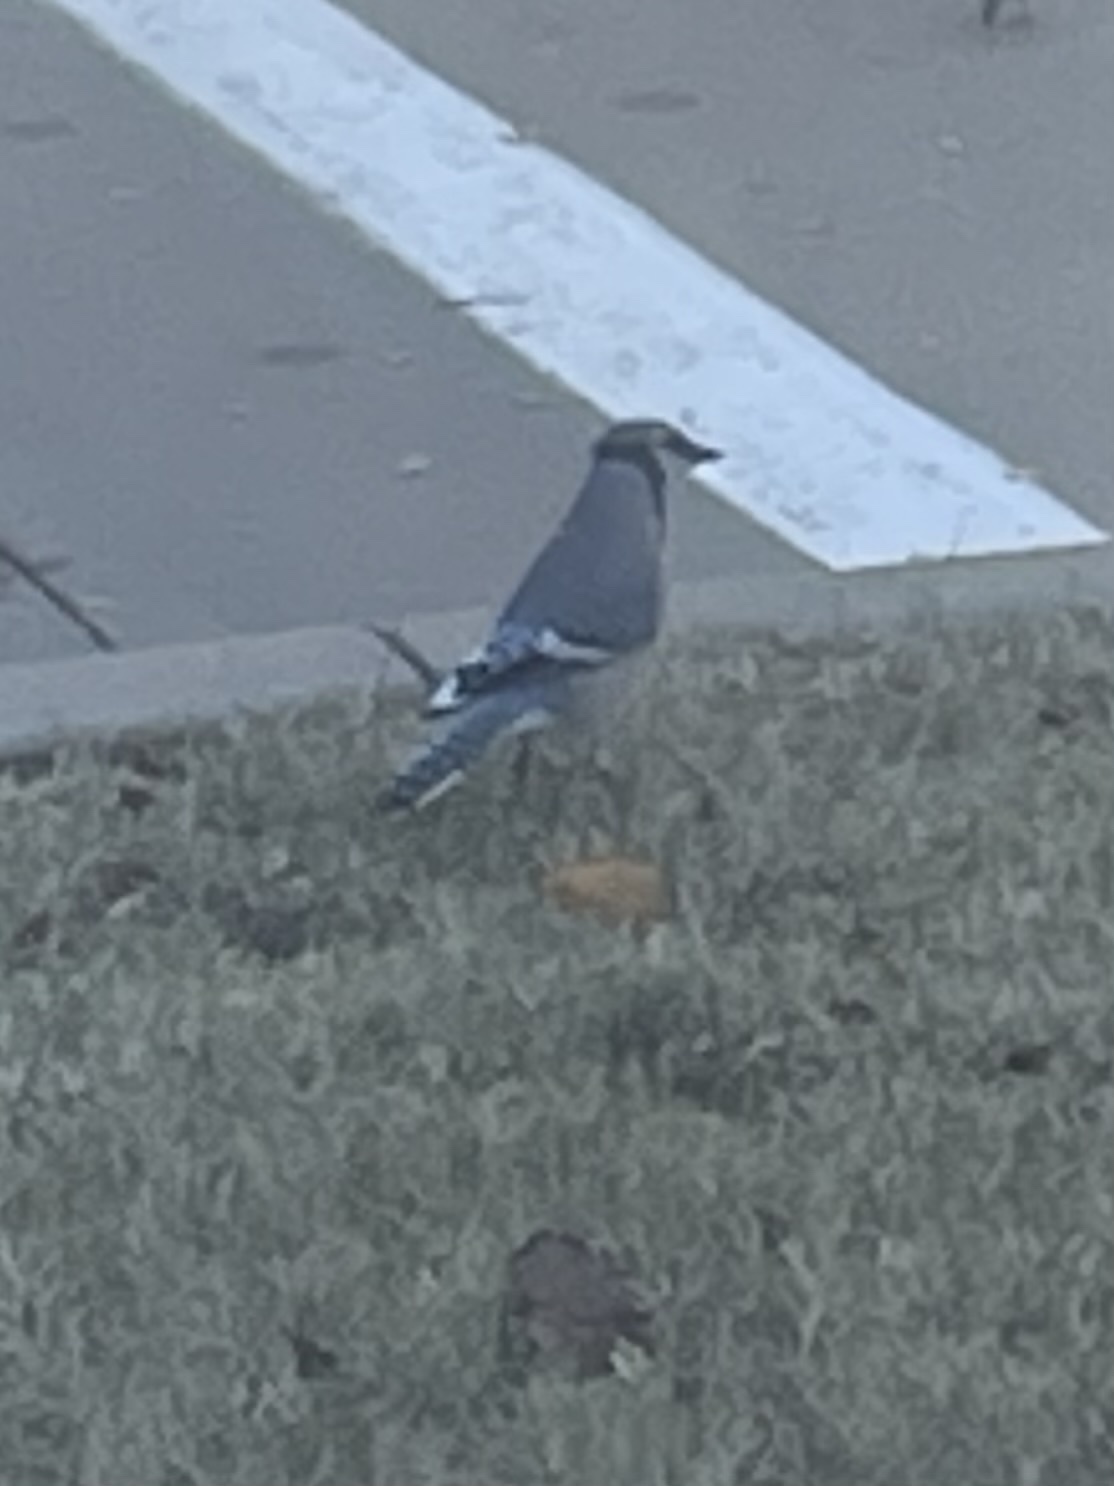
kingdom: Animalia
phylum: Chordata
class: Aves
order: Passeriformes
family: Corvidae
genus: Cyanocitta
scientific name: Cyanocitta cristata
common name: Blue jay
